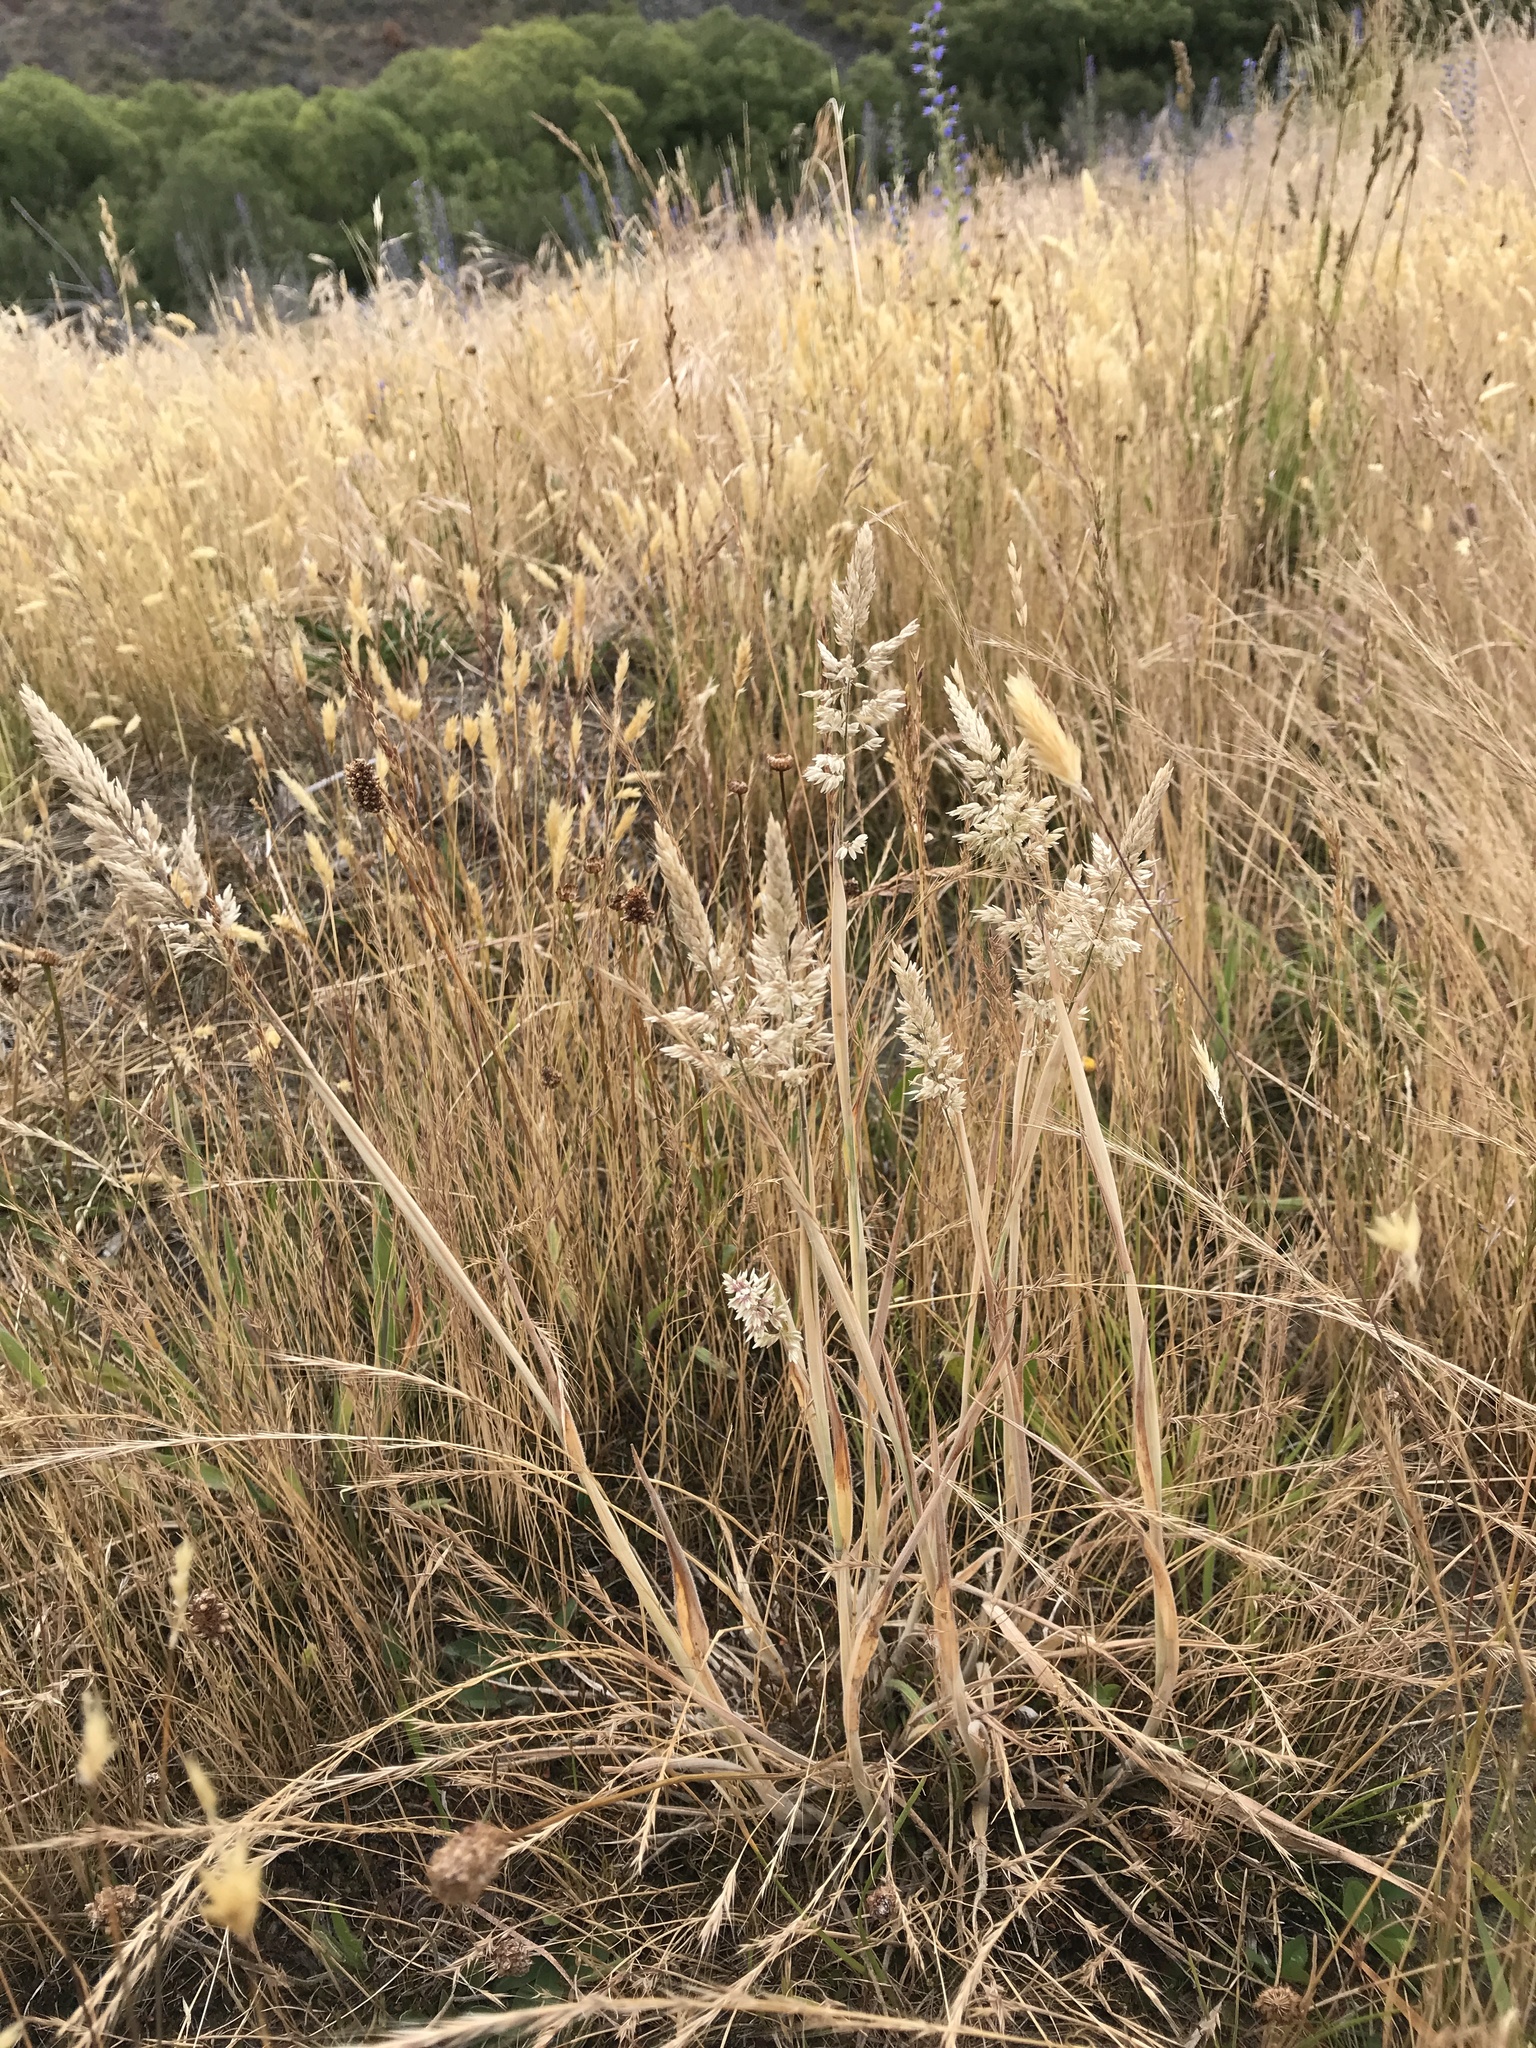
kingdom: Plantae
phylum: Tracheophyta
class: Liliopsida
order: Poales
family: Poaceae
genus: Holcus
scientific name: Holcus lanatus
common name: Yorkshire-fog
